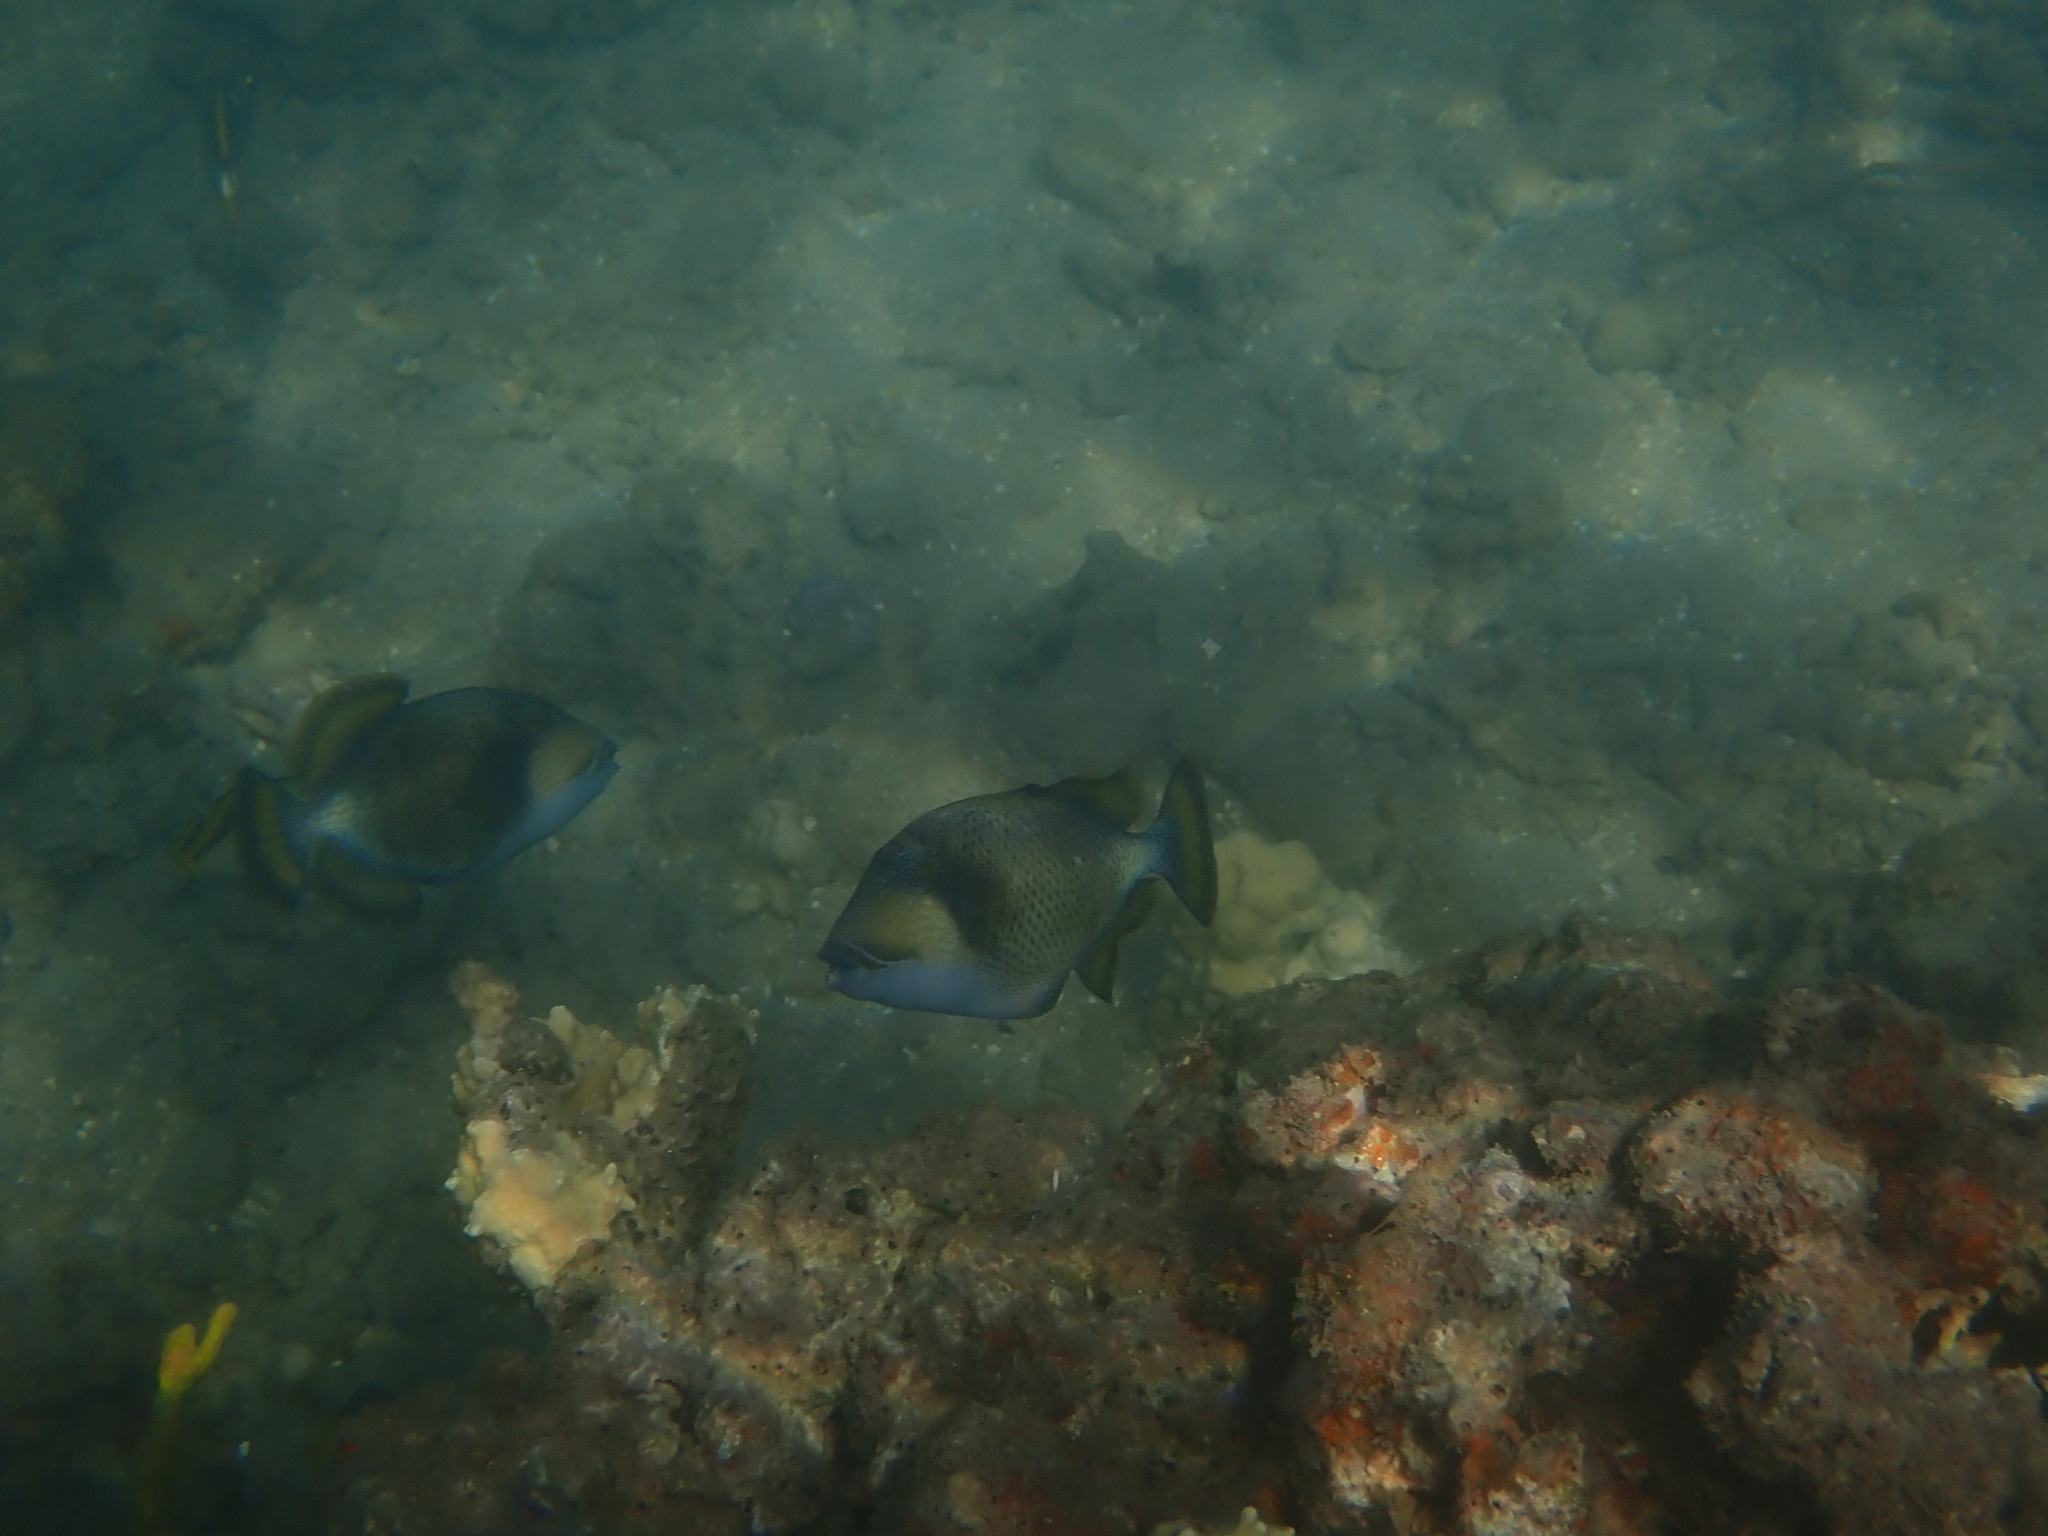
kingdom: Animalia
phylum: Chordata
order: Tetraodontiformes
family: Balistidae
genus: Balistoides
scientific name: Balistoides viridescens
